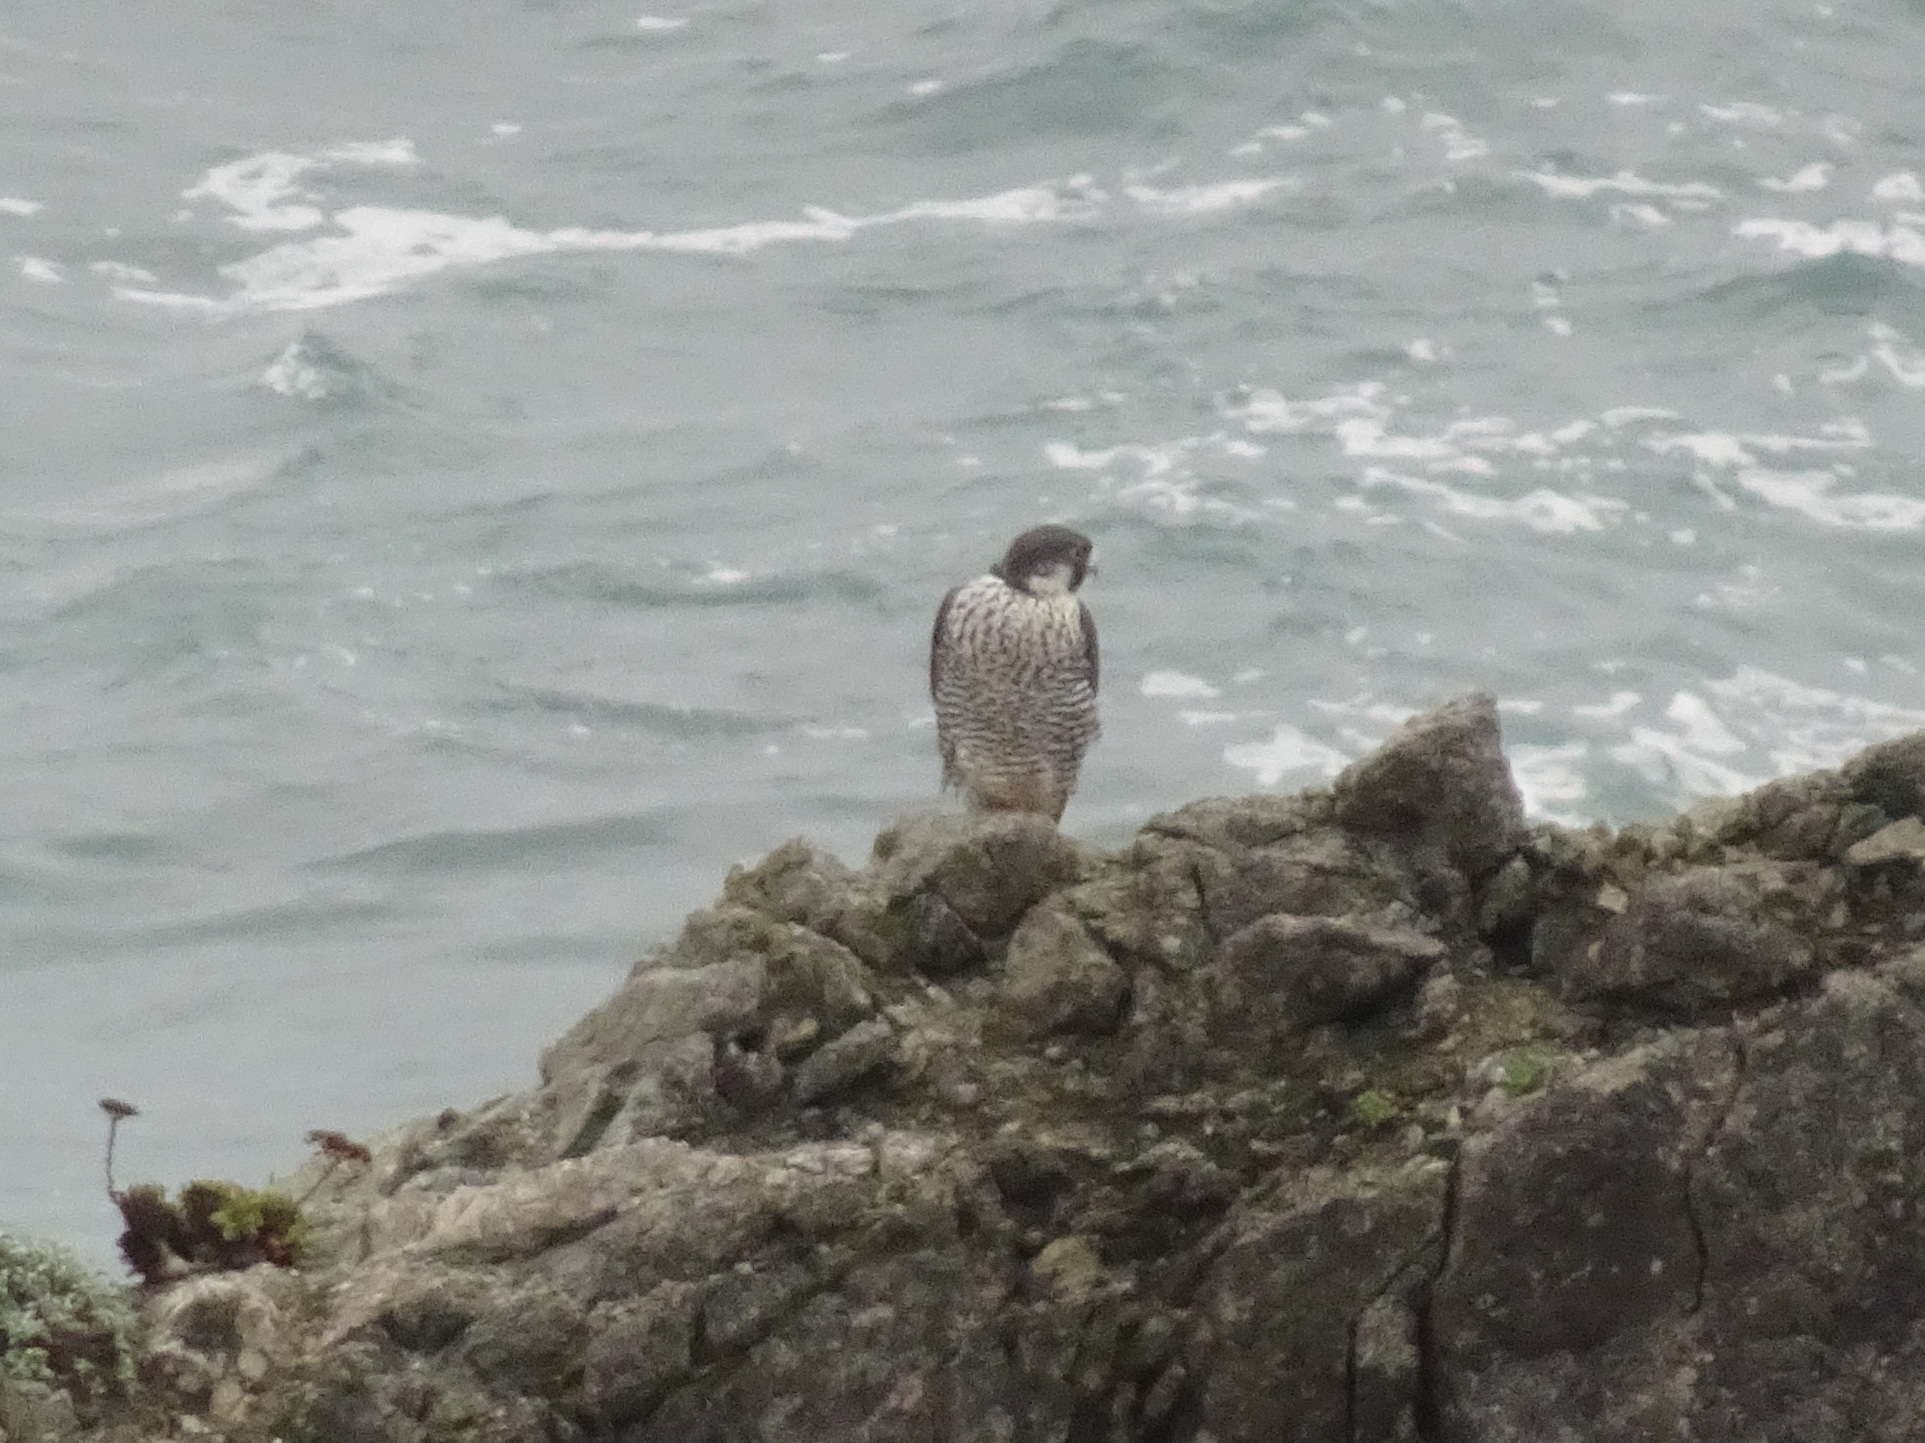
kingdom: Animalia
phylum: Chordata
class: Aves
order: Falconiformes
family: Falconidae
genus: Falco
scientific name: Falco peregrinus
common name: Peregrine falcon
